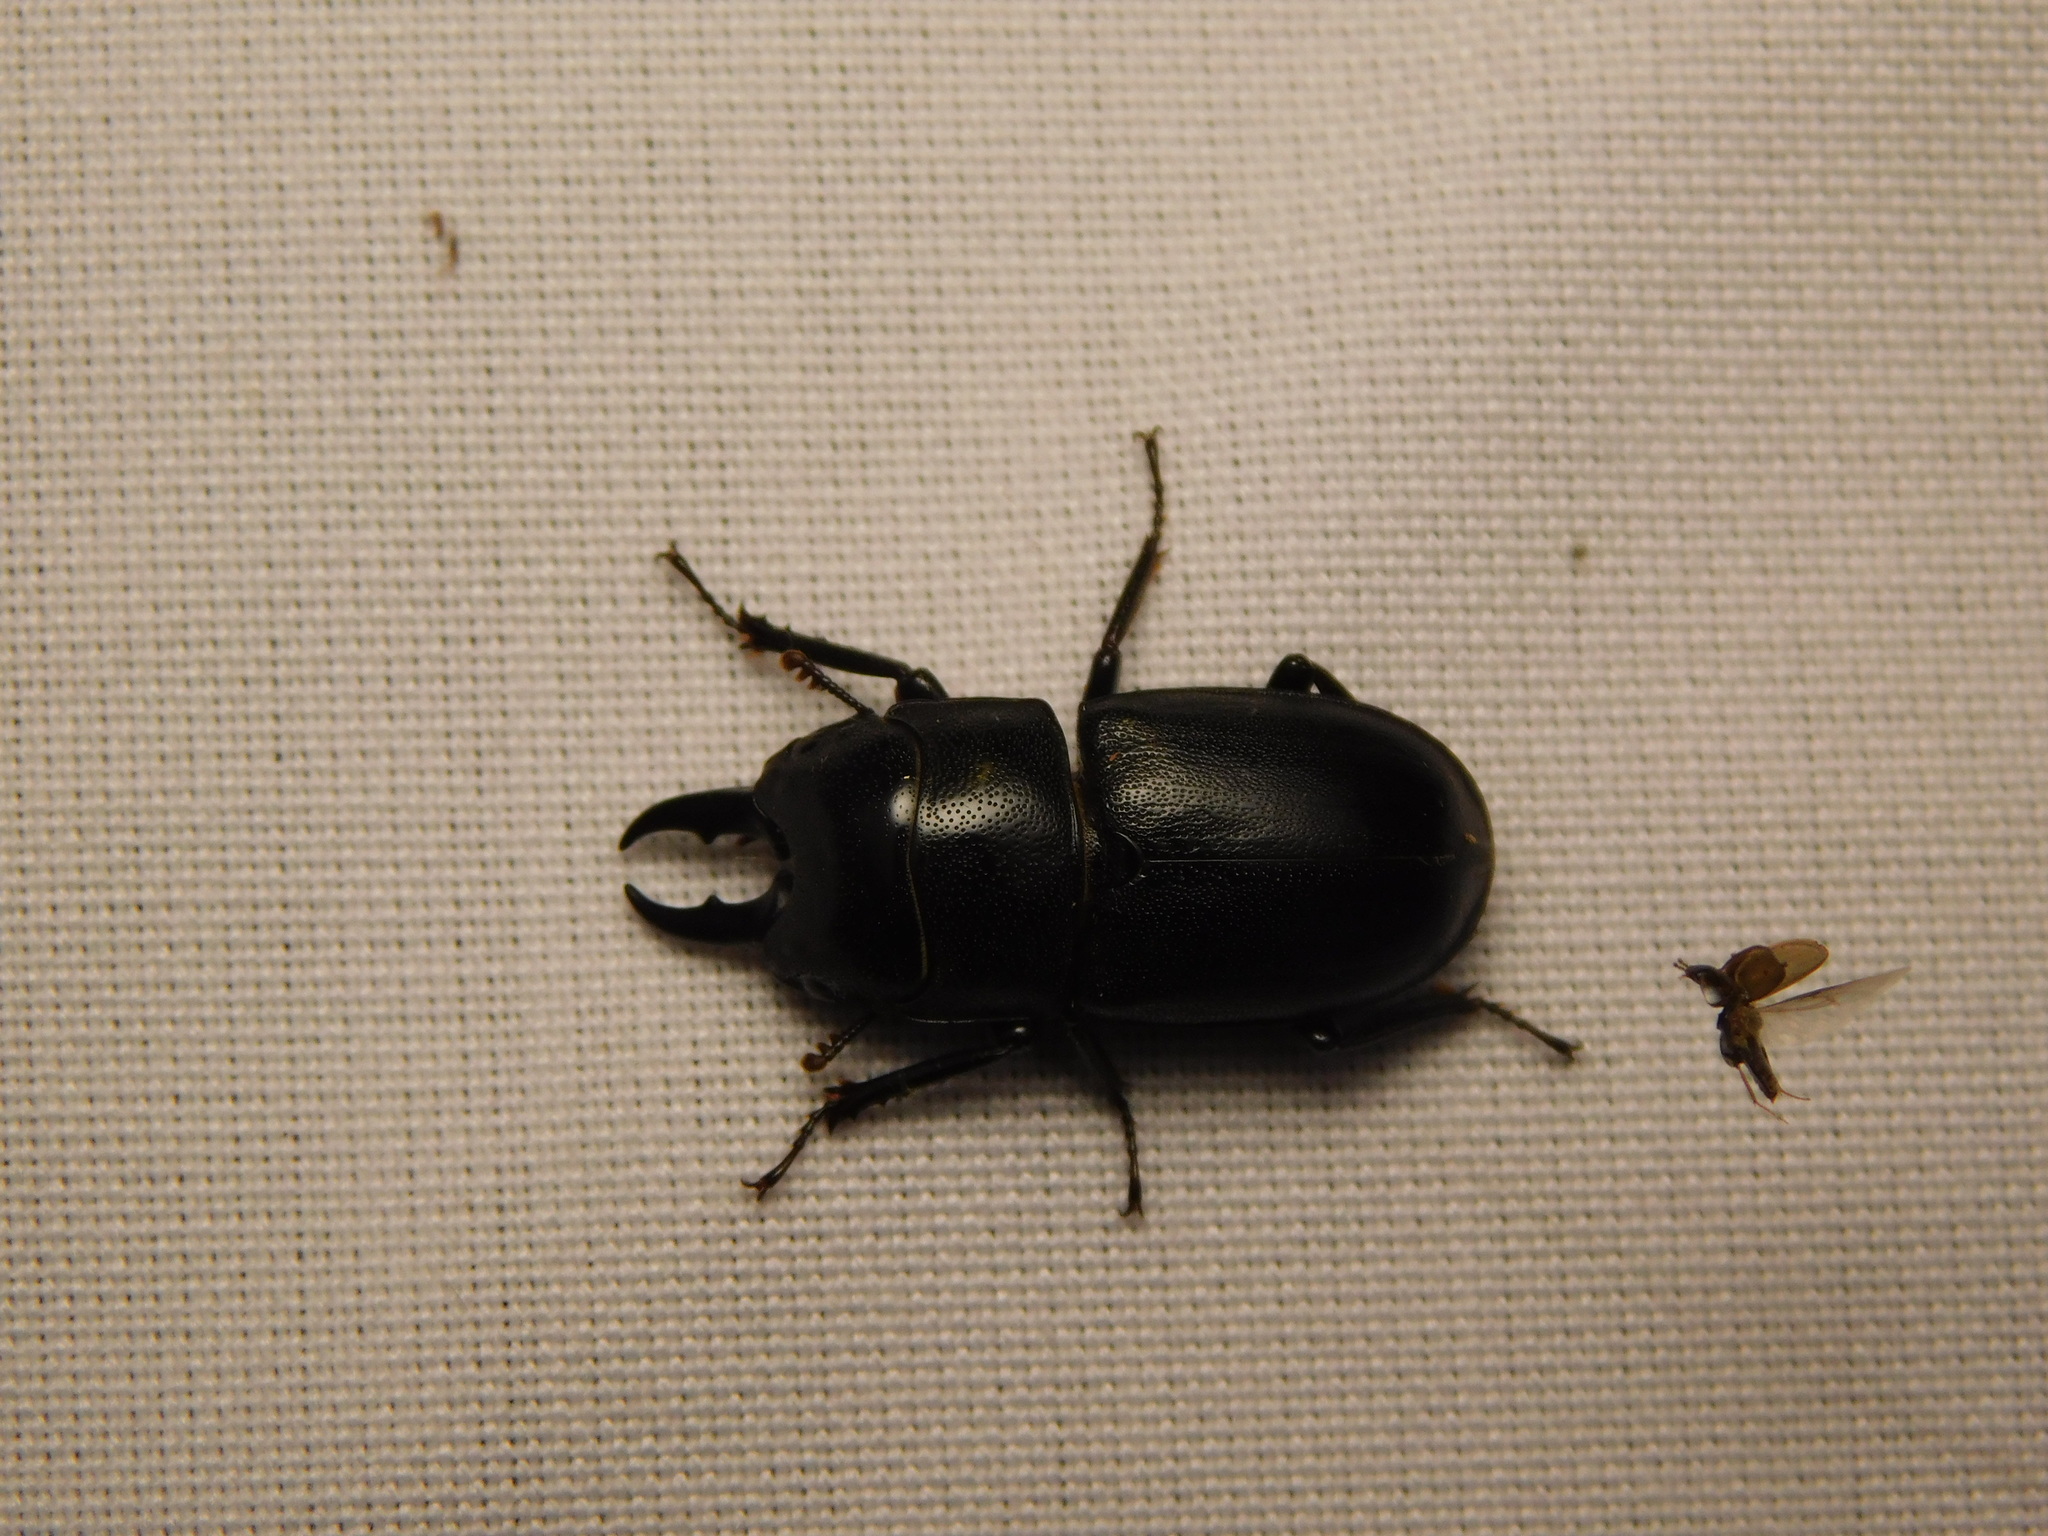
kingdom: Animalia
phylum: Arthropoda
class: Insecta
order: Coleoptera
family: Lucanidae
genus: Prosopocoilus
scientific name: Prosopocoilus candezei
